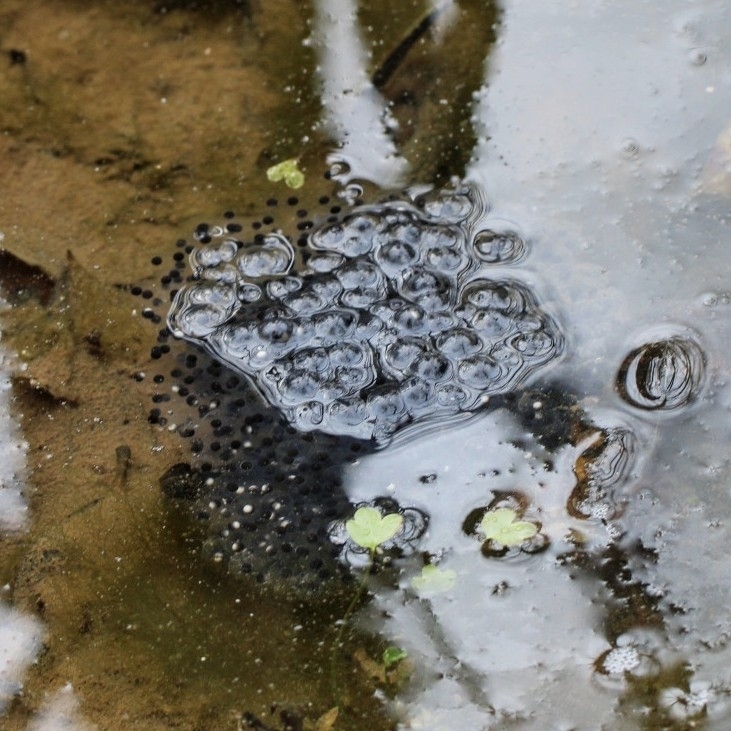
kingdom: Animalia
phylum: Chordata
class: Amphibia
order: Anura
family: Ranidae
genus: Lithobates
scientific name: Lithobates sylvaticus
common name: Wood frog
